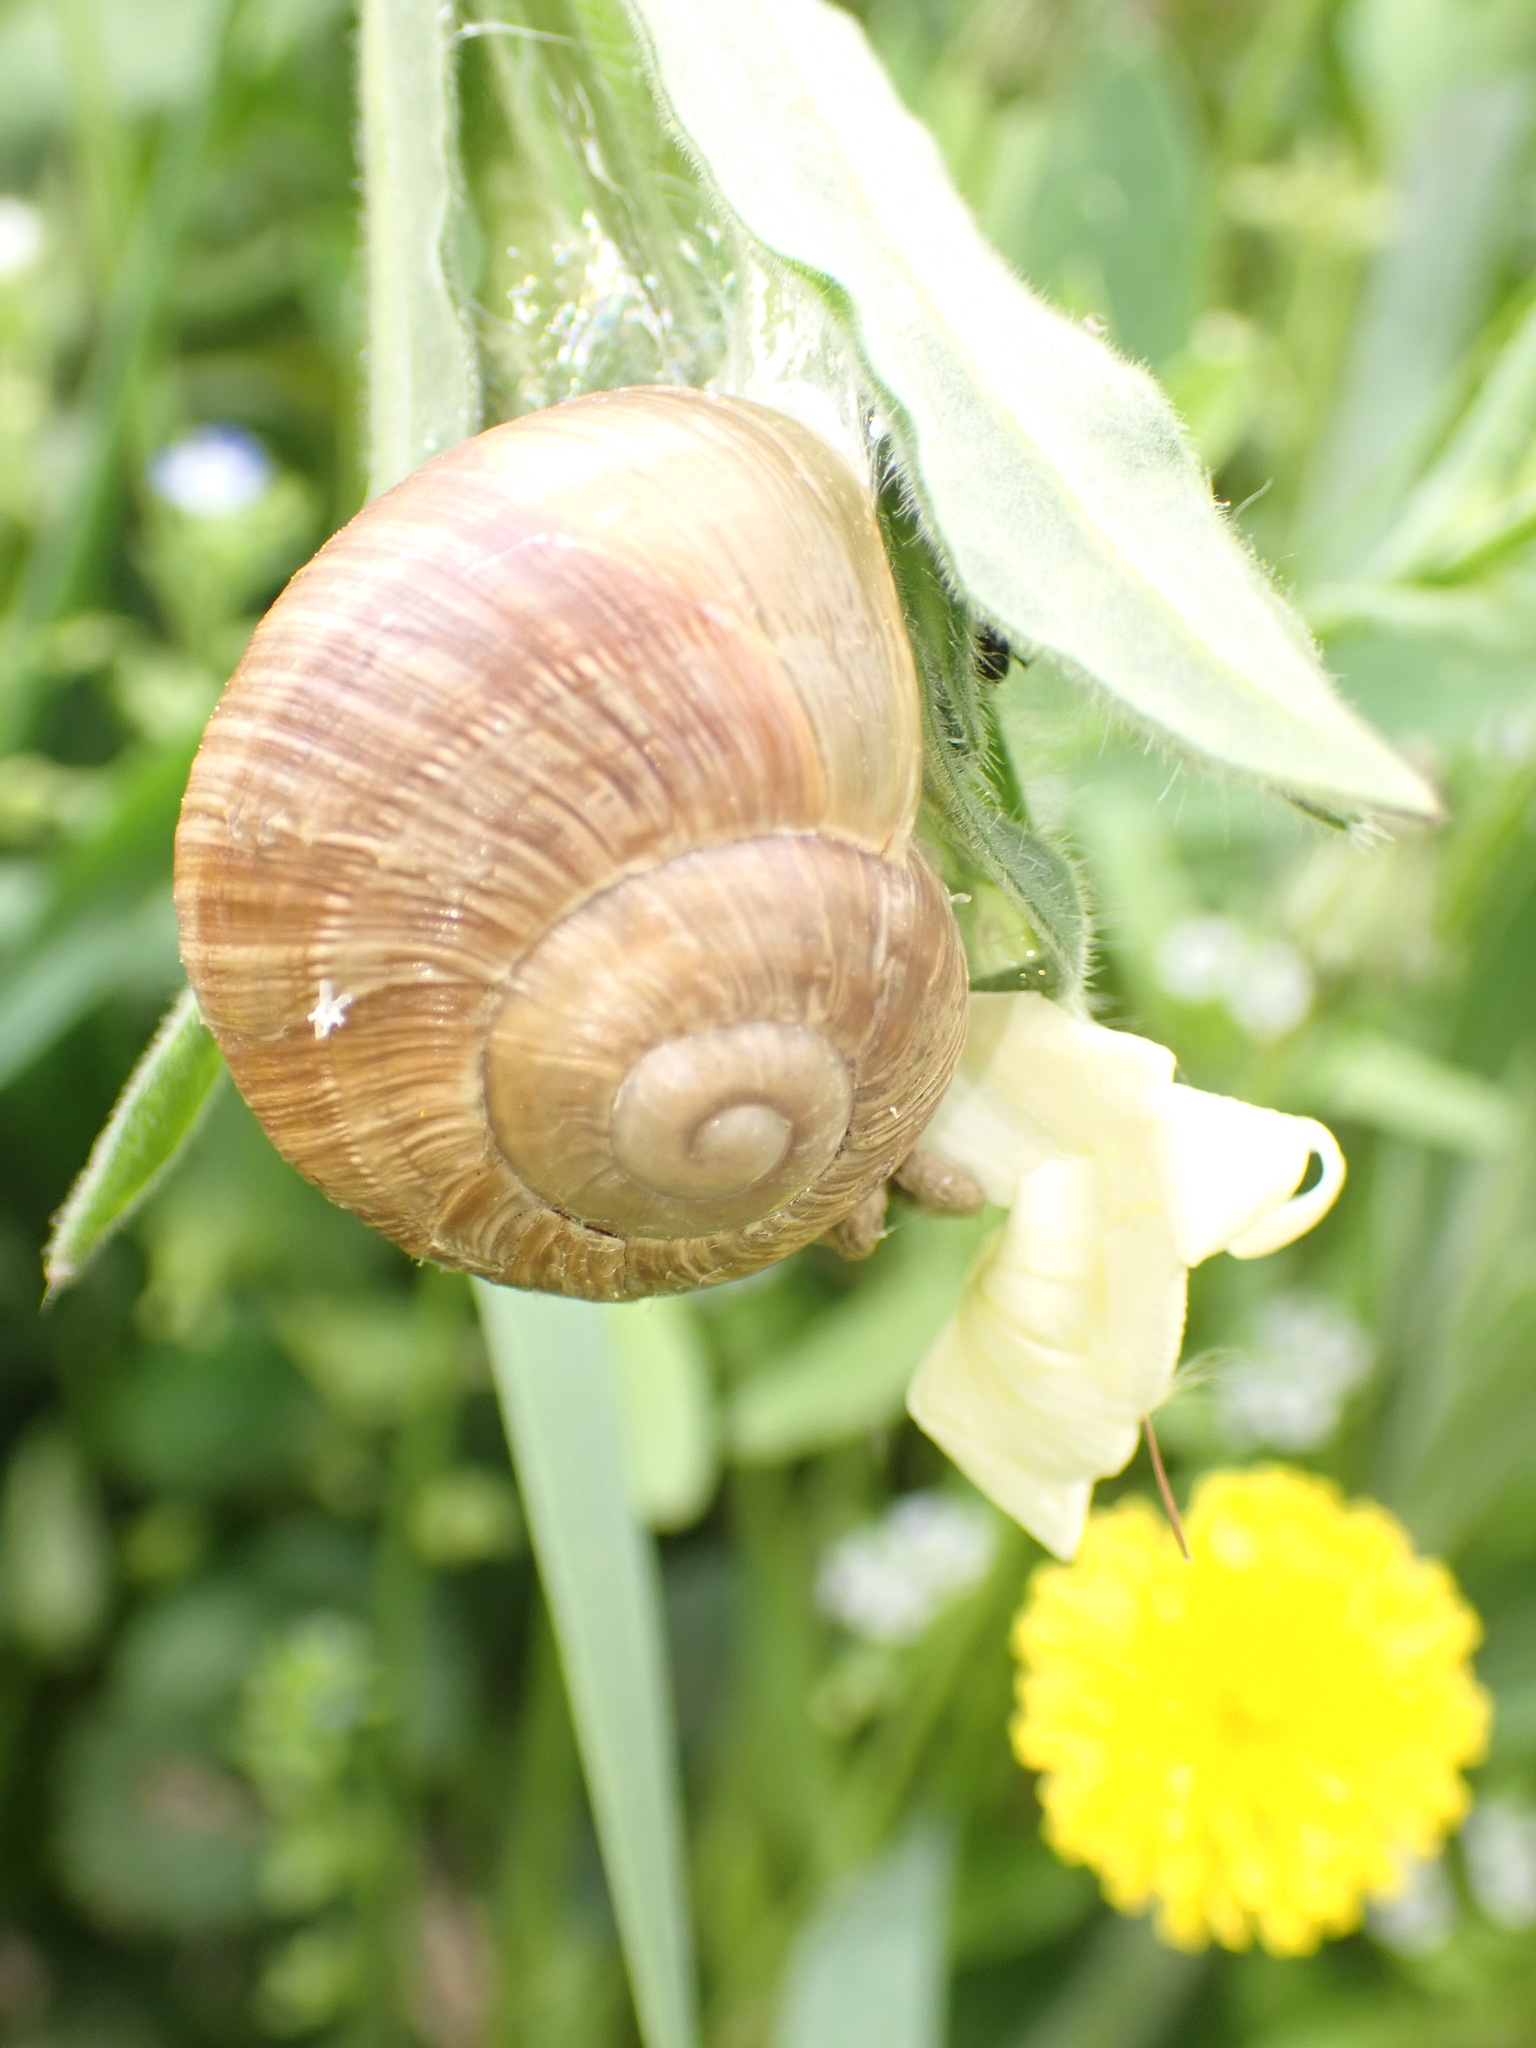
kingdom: Animalia
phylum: Mollusca
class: Gastropoda
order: Stylommatophora
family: Helicidae
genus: Helix
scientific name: Helix pomatia
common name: Roman snail
